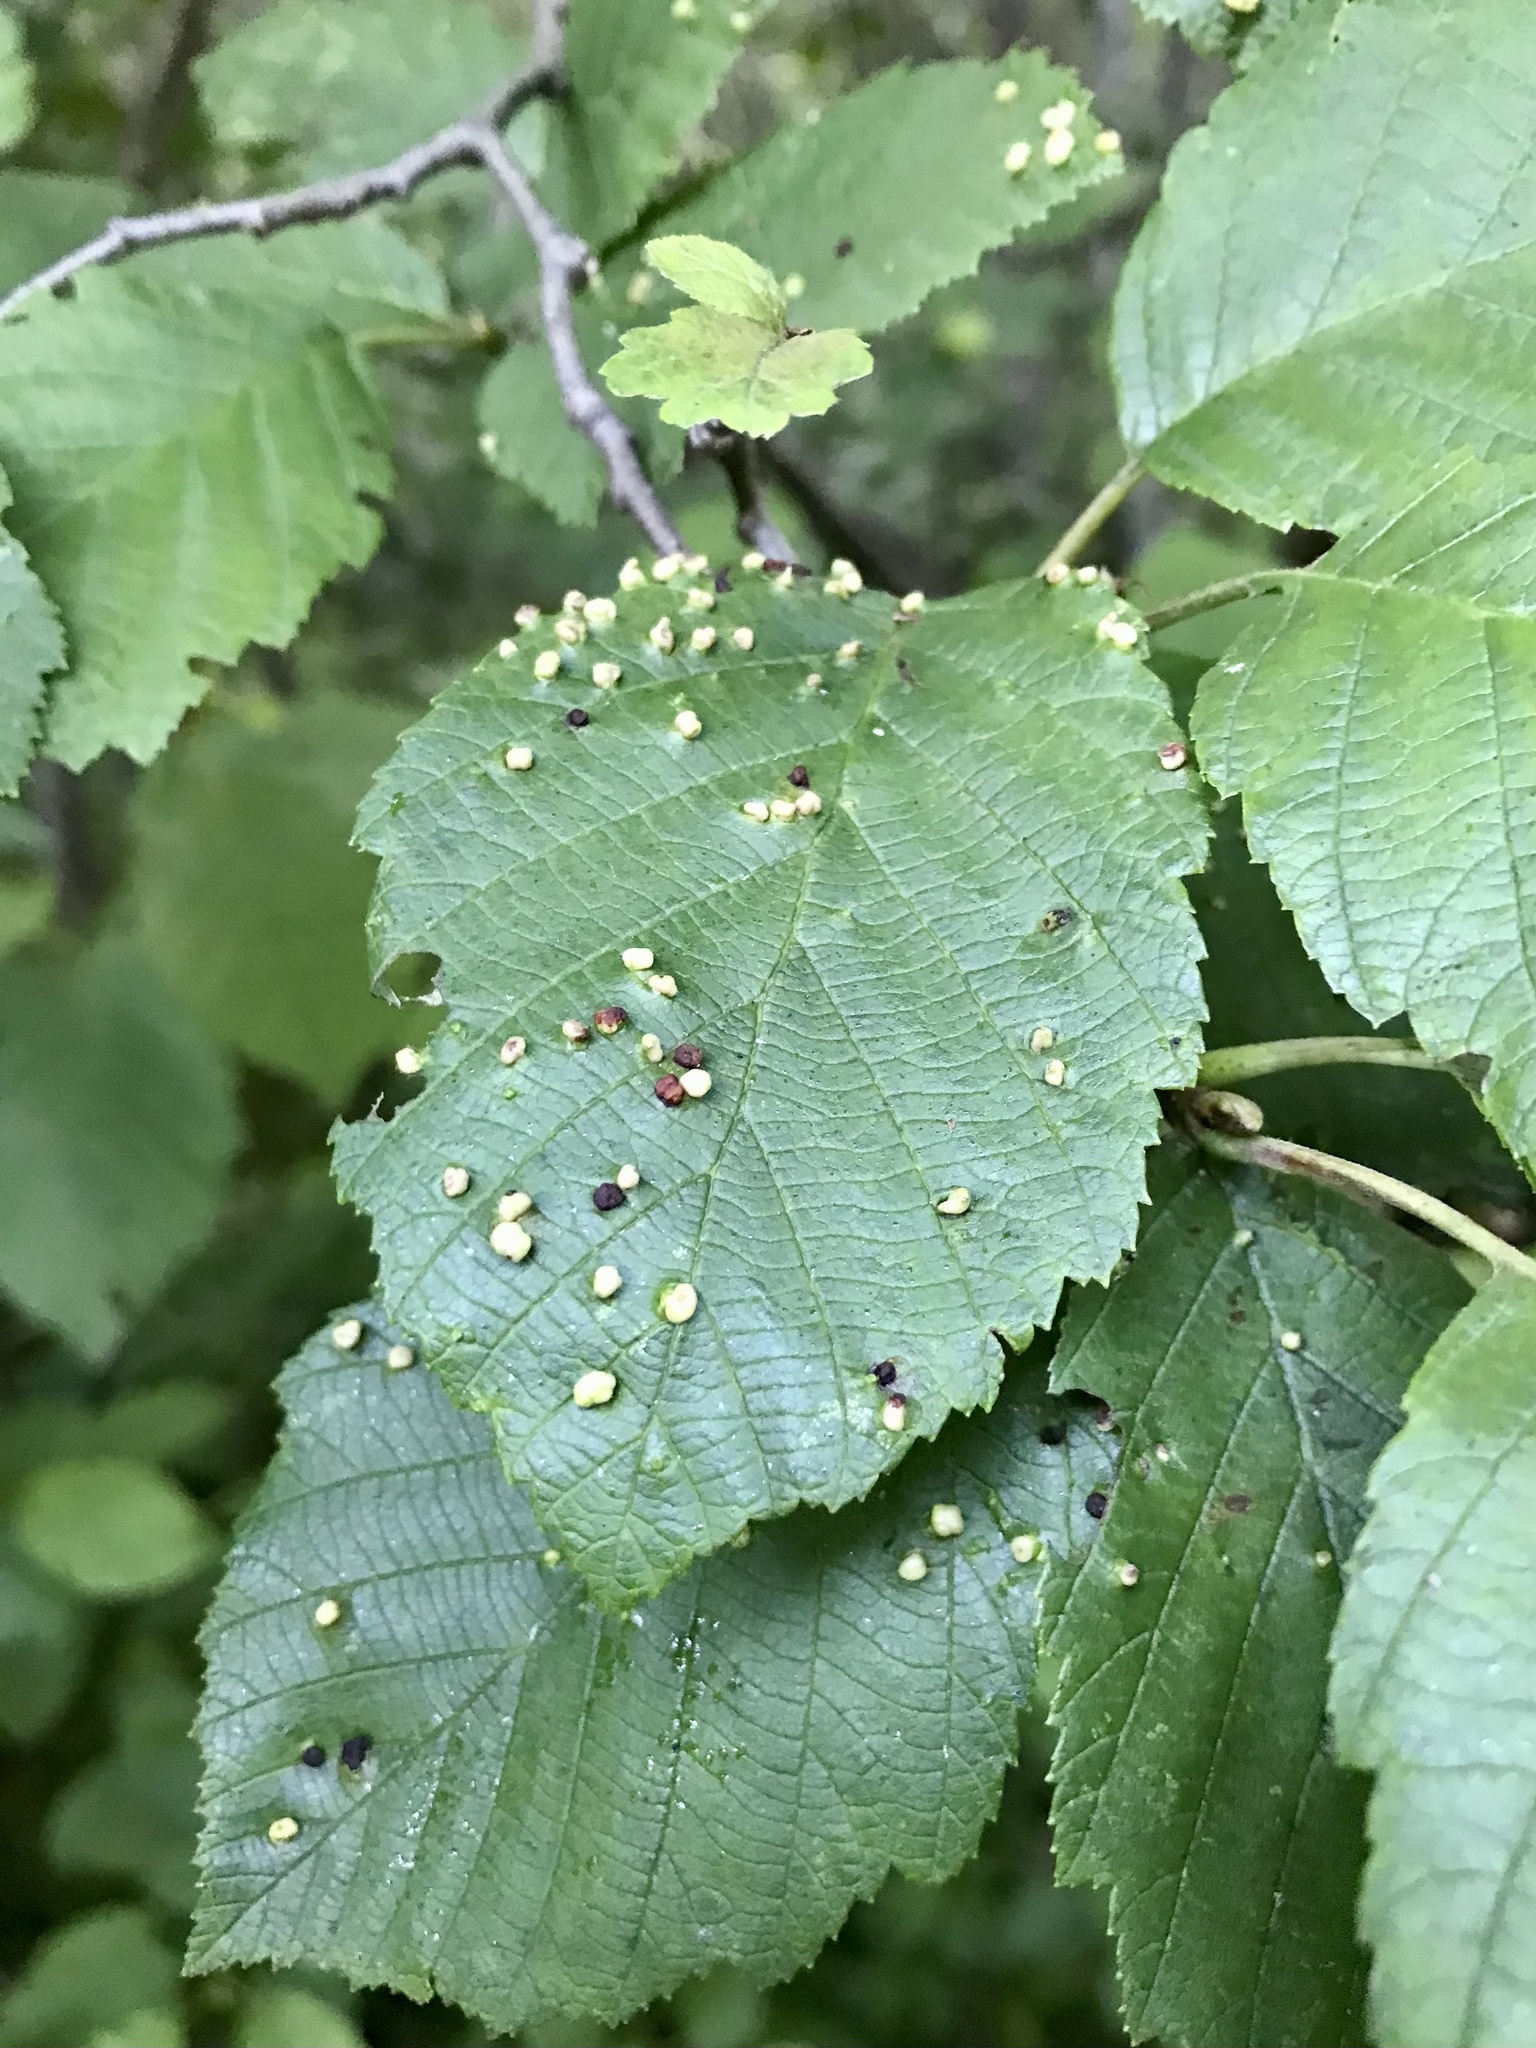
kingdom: Animalia
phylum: Arthropoda
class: Arachnida
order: Trombidiformes
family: Eriophyidae
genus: Eriophyes
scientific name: Eriophyes laevis
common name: Alder leaf gall mite
